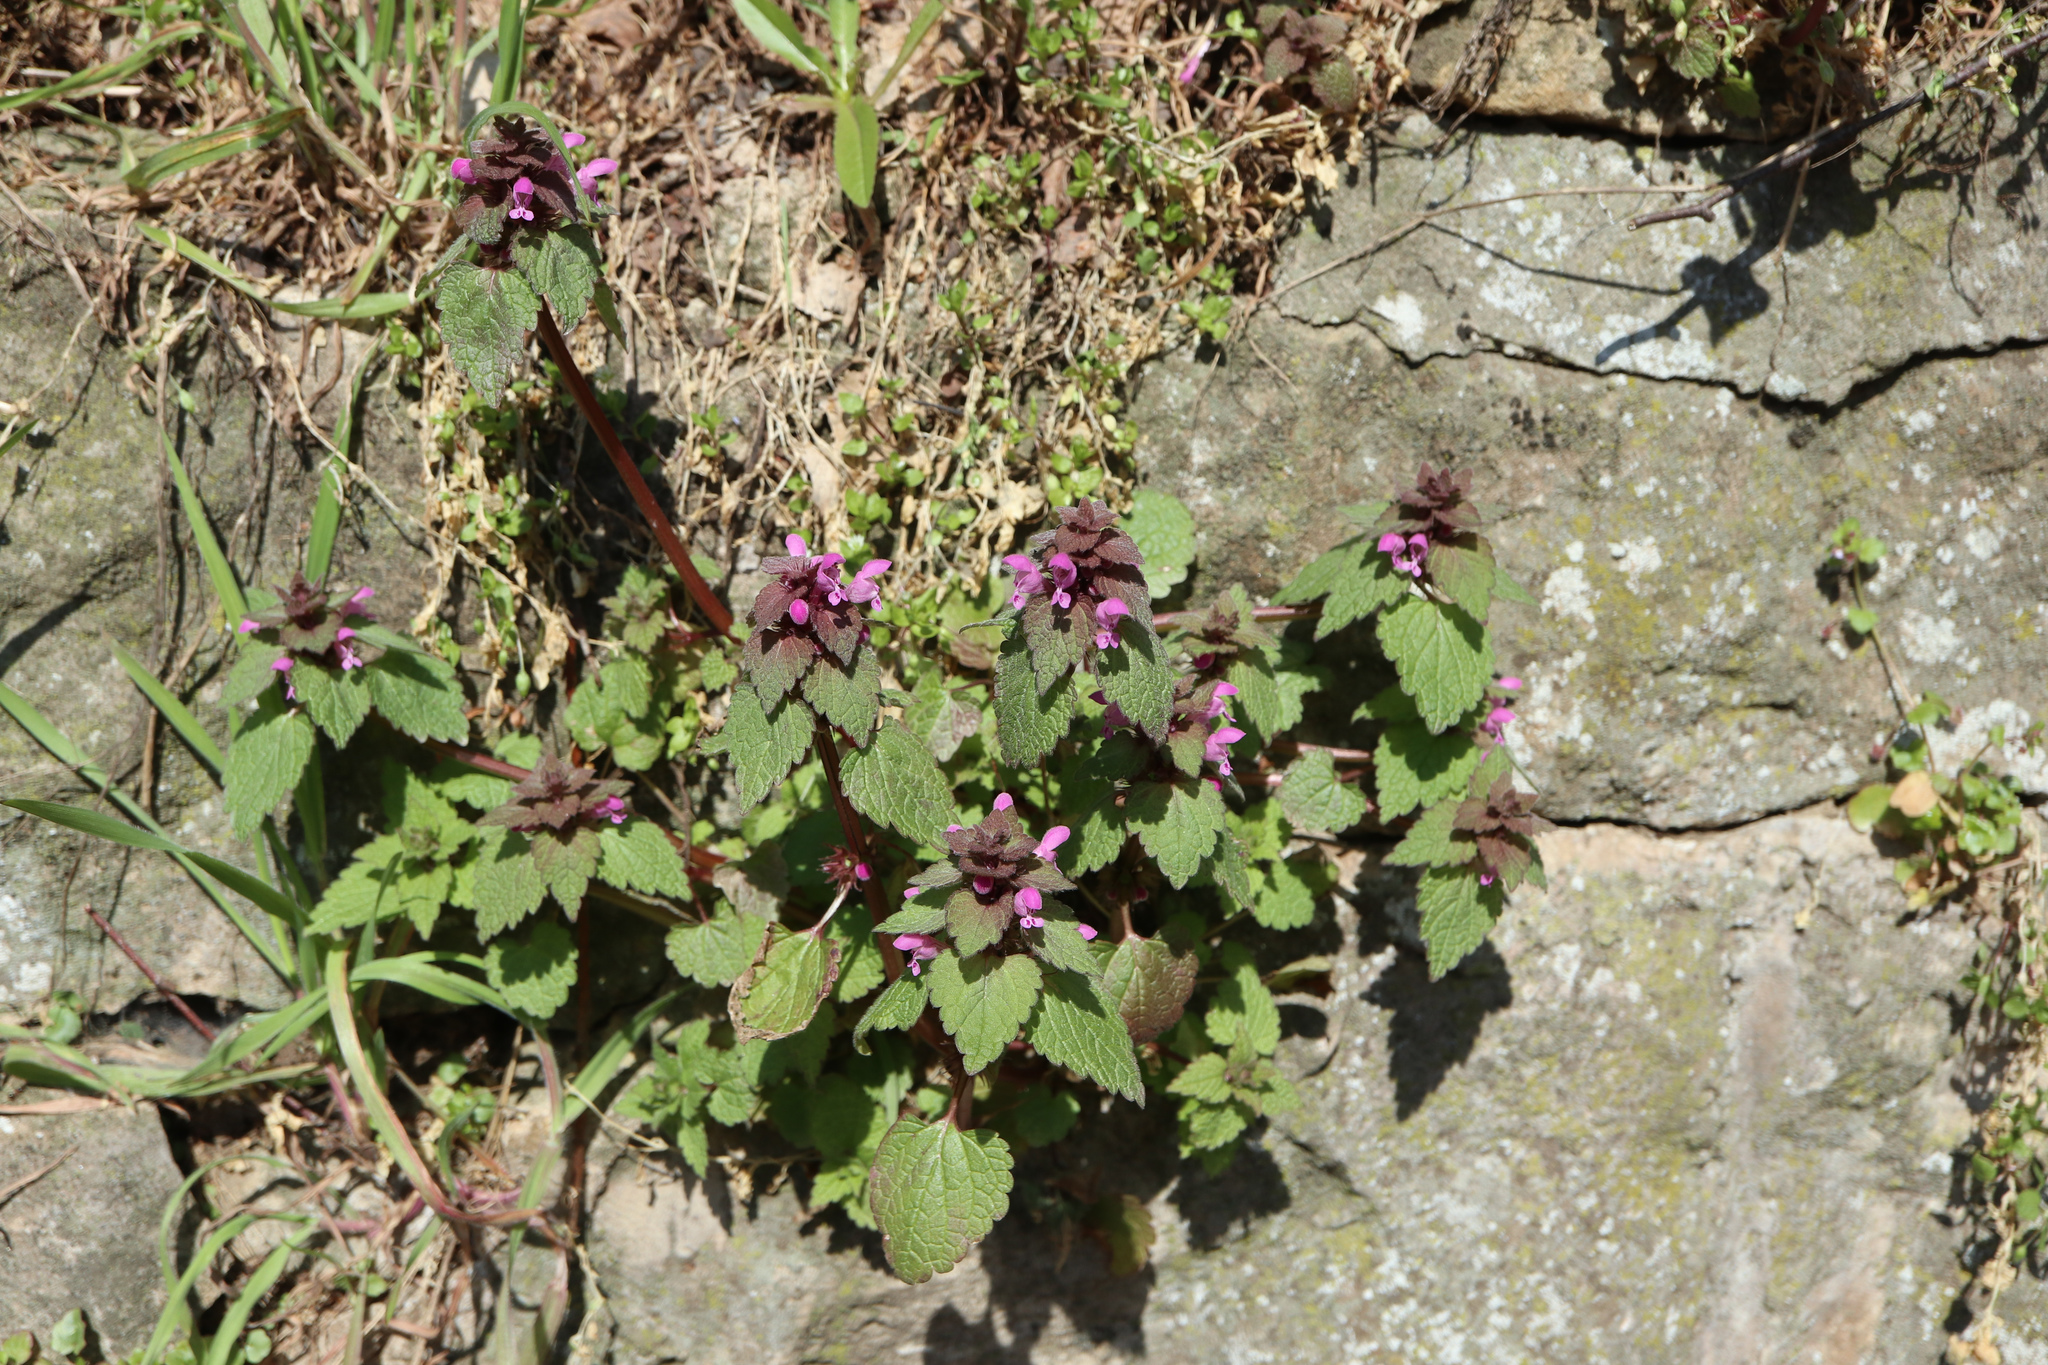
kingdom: Plantae
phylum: Tracheophyta
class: Magnoliopsida
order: Lamiales
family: Lamiaceae
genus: Lamium
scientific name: Lamium purpureum
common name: Red dead-nettle
